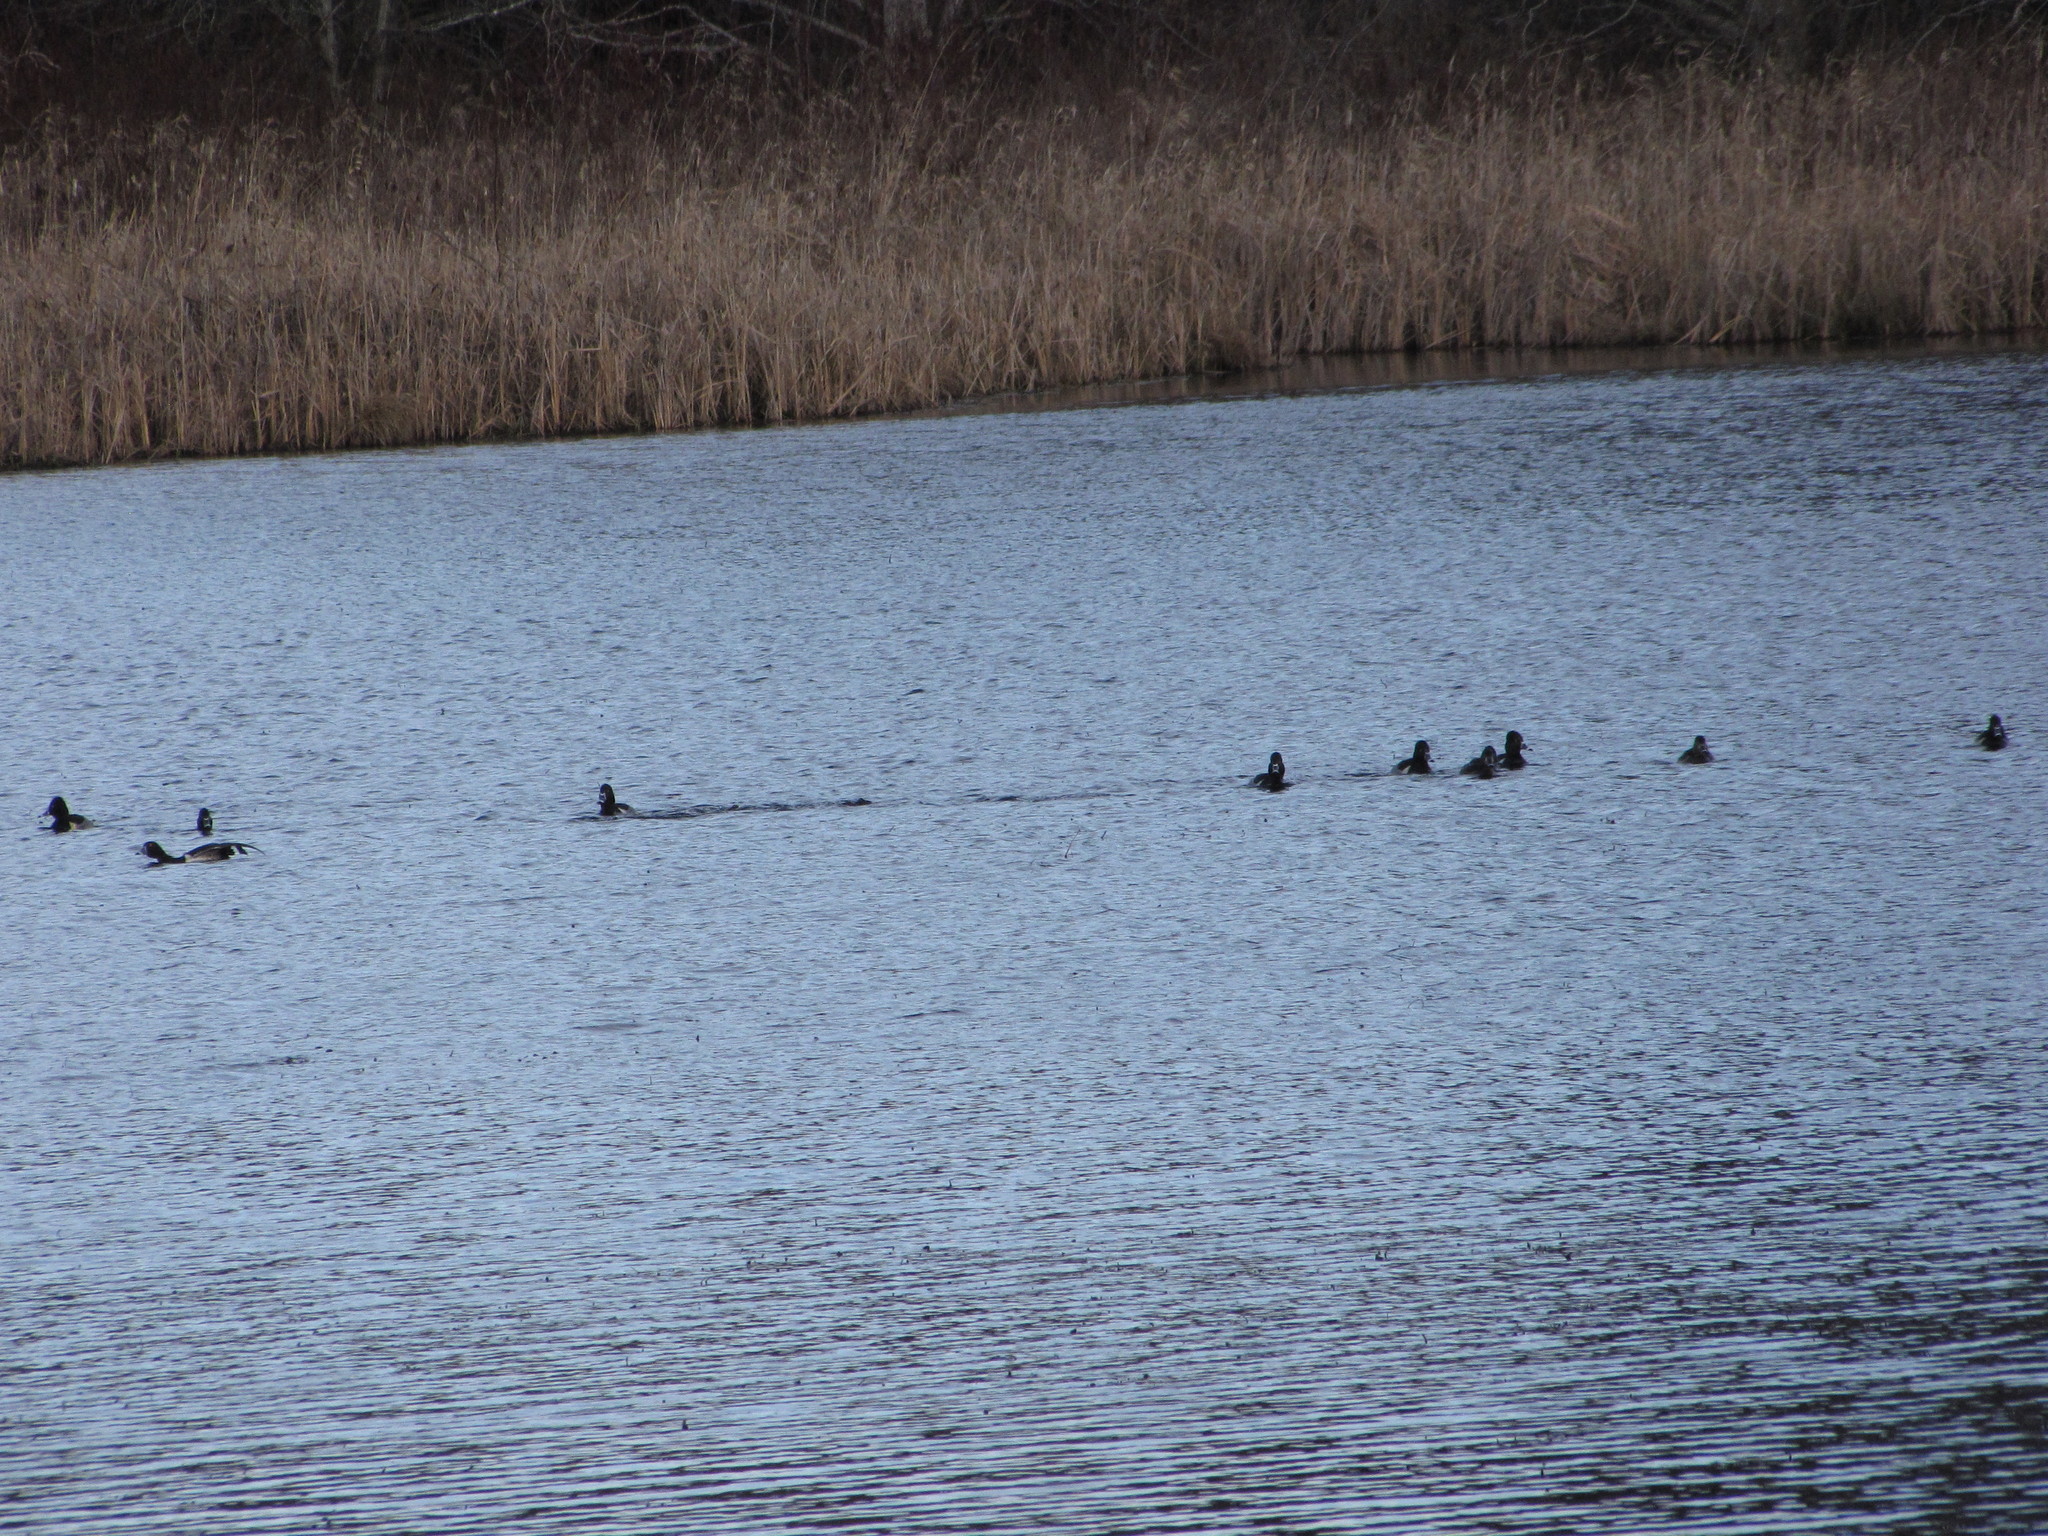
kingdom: Animalia
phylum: Chordata
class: Aves
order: Anseriformes
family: Anatidae
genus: Aythya
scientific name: Aythya collaris
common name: Ring-necked duck
